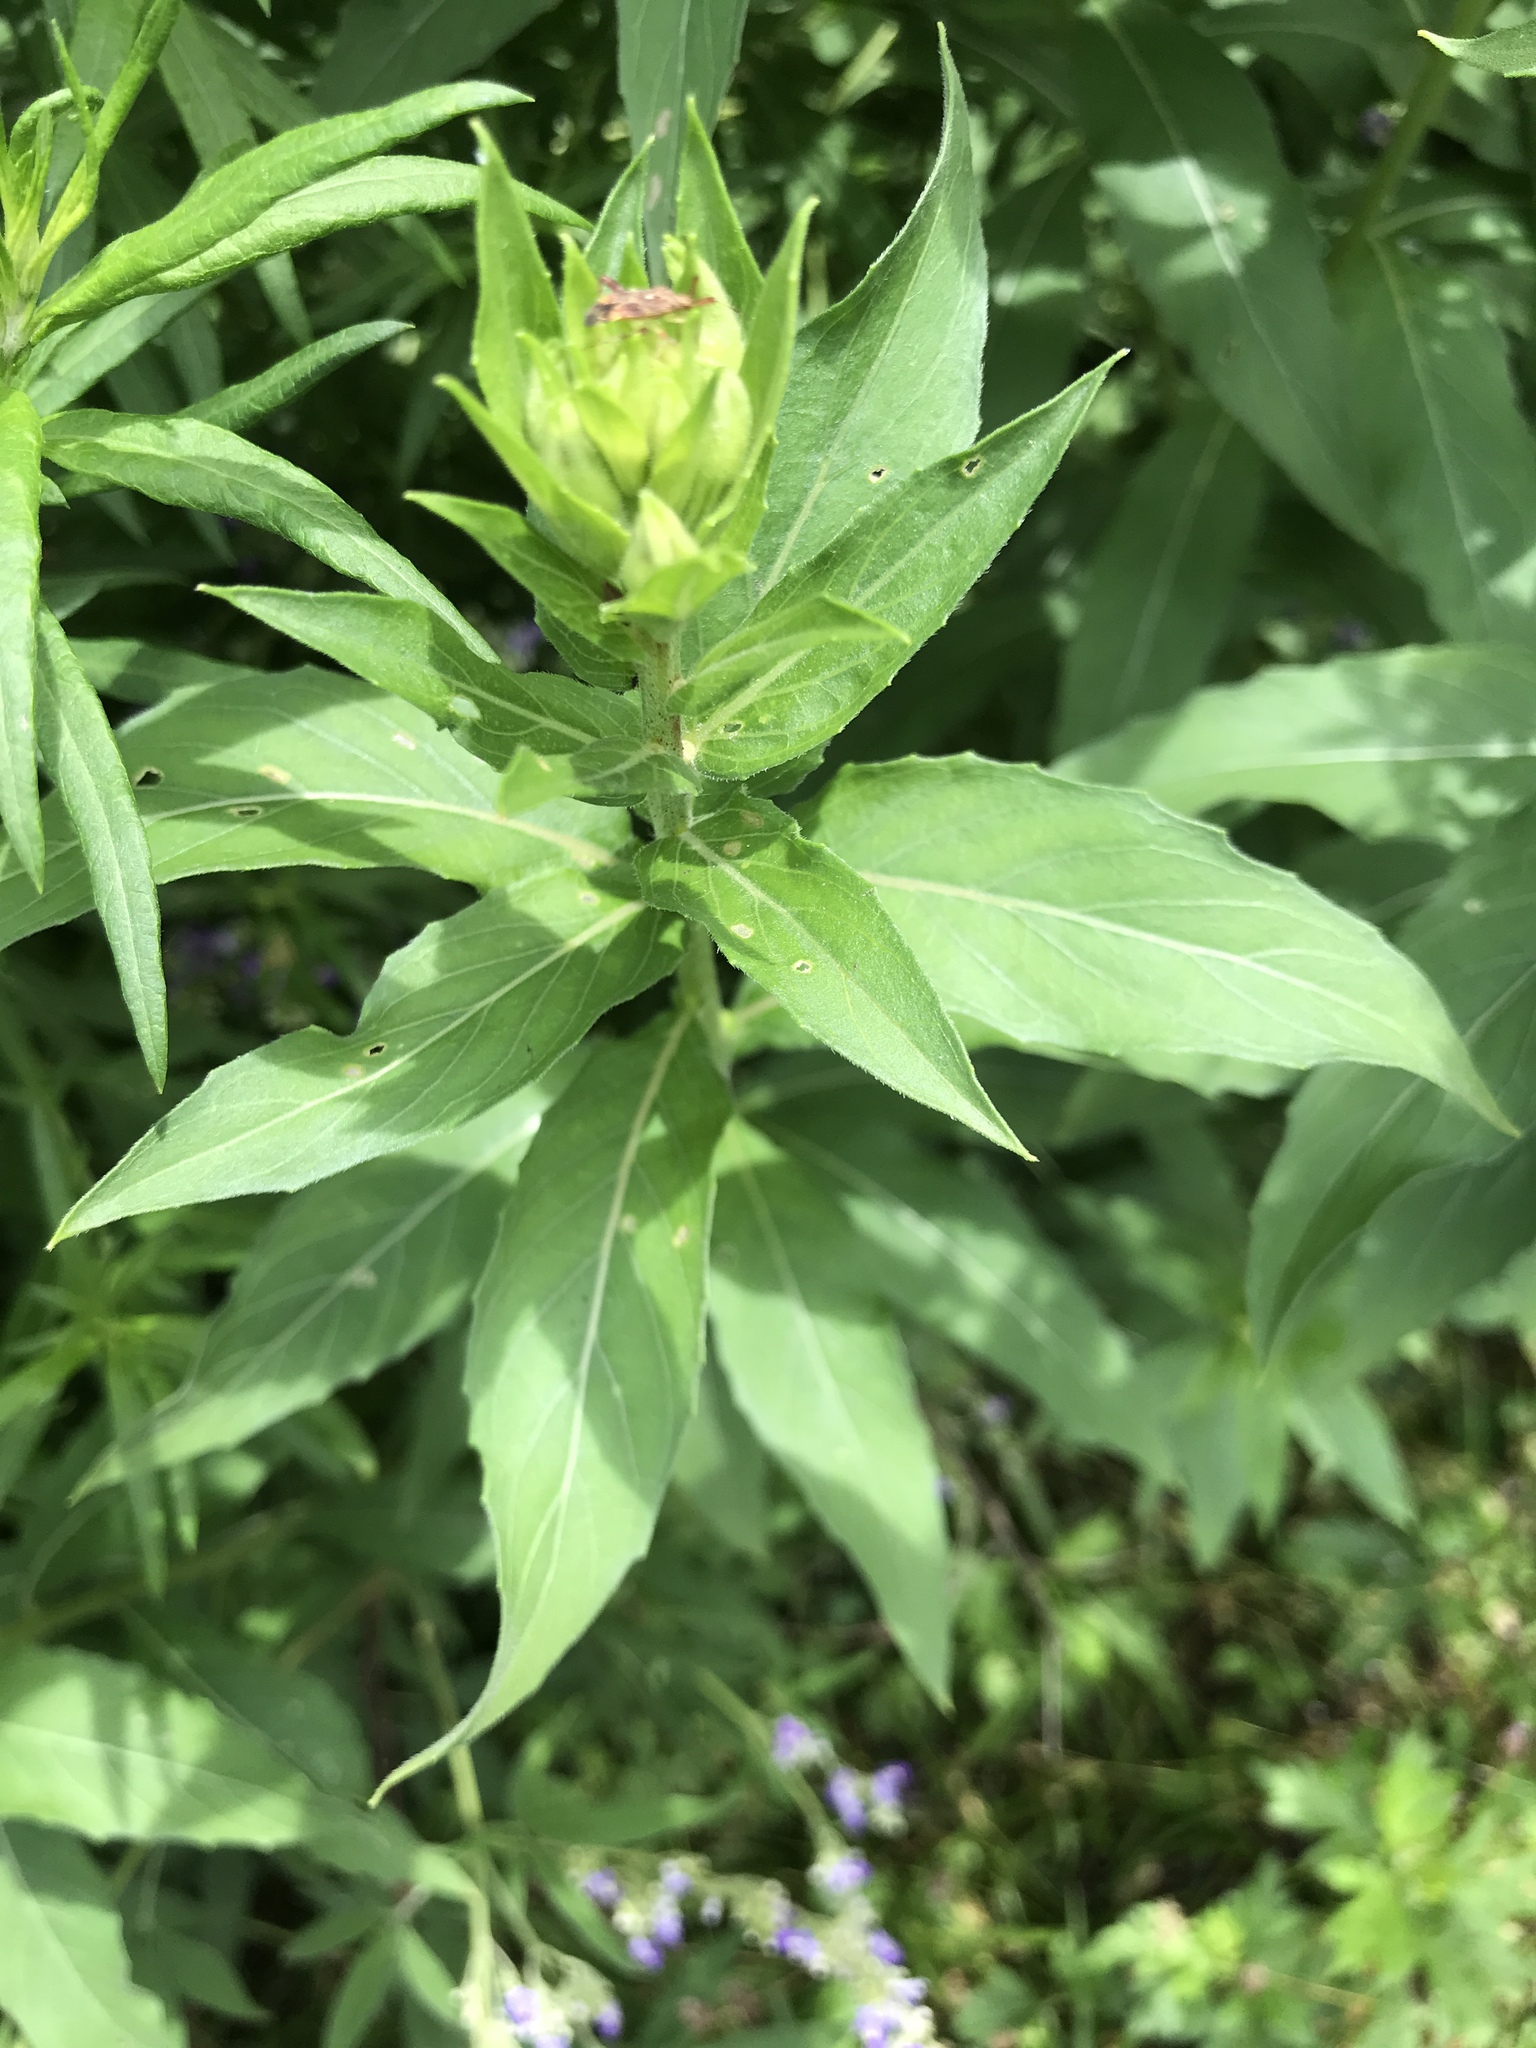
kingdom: Plantae
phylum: Tracheophyta
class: Magnoliopsida
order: Myrtales
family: Onagraceae
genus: Oenothera
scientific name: Oenothera biennis
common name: Common evening-primrose
